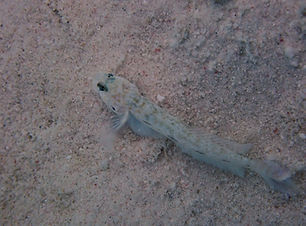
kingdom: Animalia
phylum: Chordata
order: Perciformes
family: Gobiidae
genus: Ctenogobius
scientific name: Ctenogobius saepepallens
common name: Dash goby
